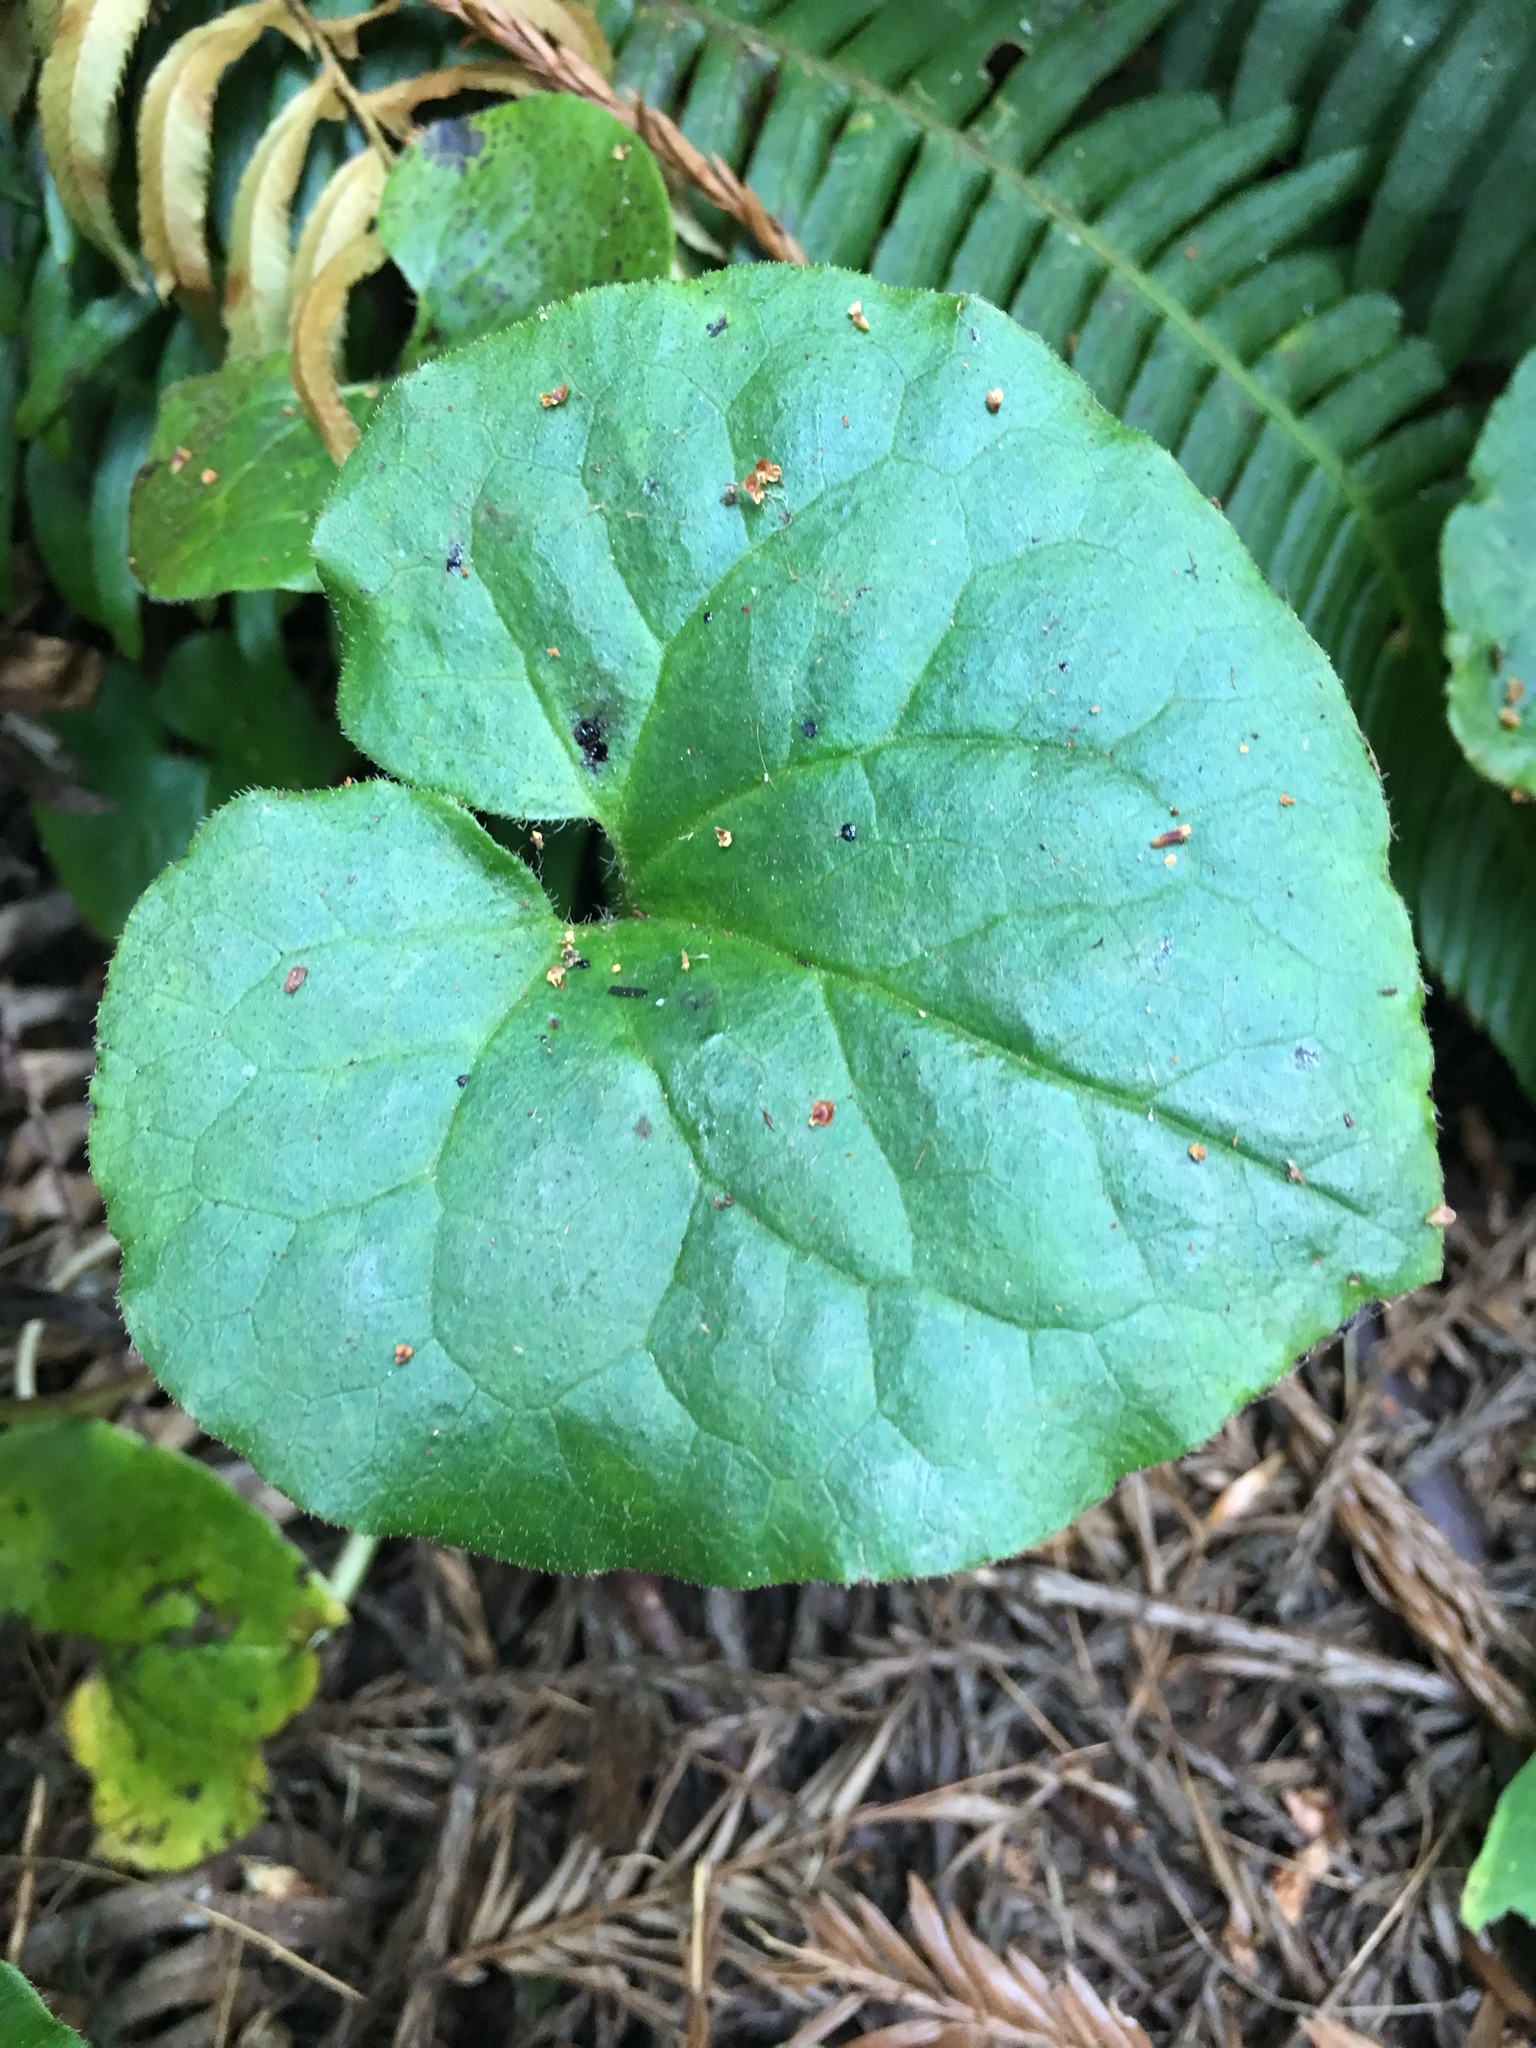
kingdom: Plantae
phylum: Tracheophyta
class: Magnoliopsida
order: Piperales
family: Aristolochiaceae
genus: Asarum
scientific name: Asarum caudatum
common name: Wild ginger
